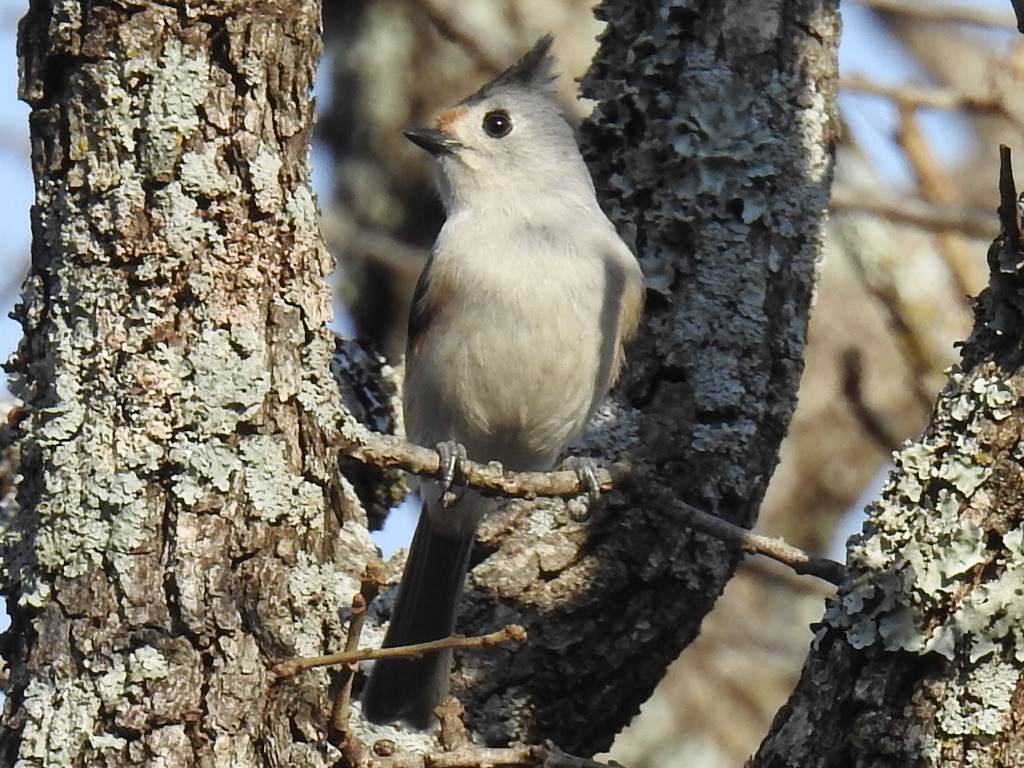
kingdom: Animalia
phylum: Chordata
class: Aves
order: Passeriformes
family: Paridae
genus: Baeolophus
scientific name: Baeolophus
